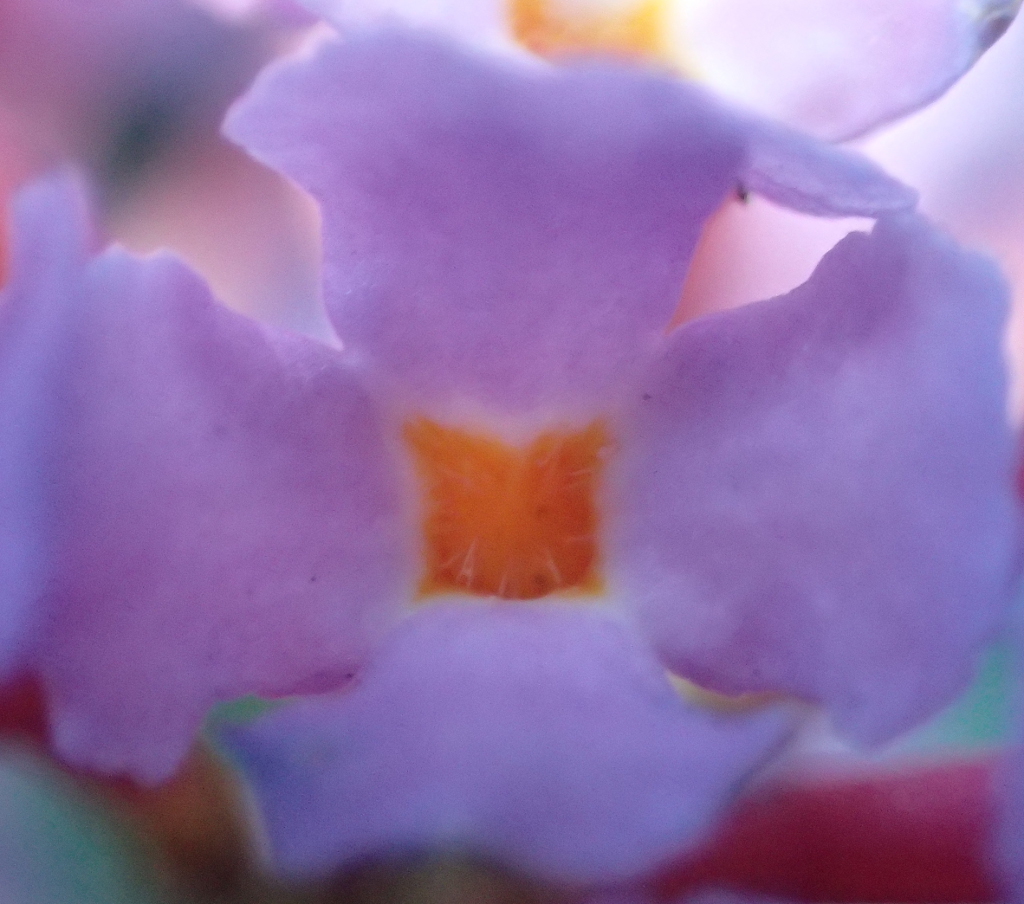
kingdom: Plantae
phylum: Tracheophyta
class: Magnoliopsida
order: Lamiales
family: Scrophulariaceae
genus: Buddleja
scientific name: Buddleja davidii
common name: Butterfly-bush
